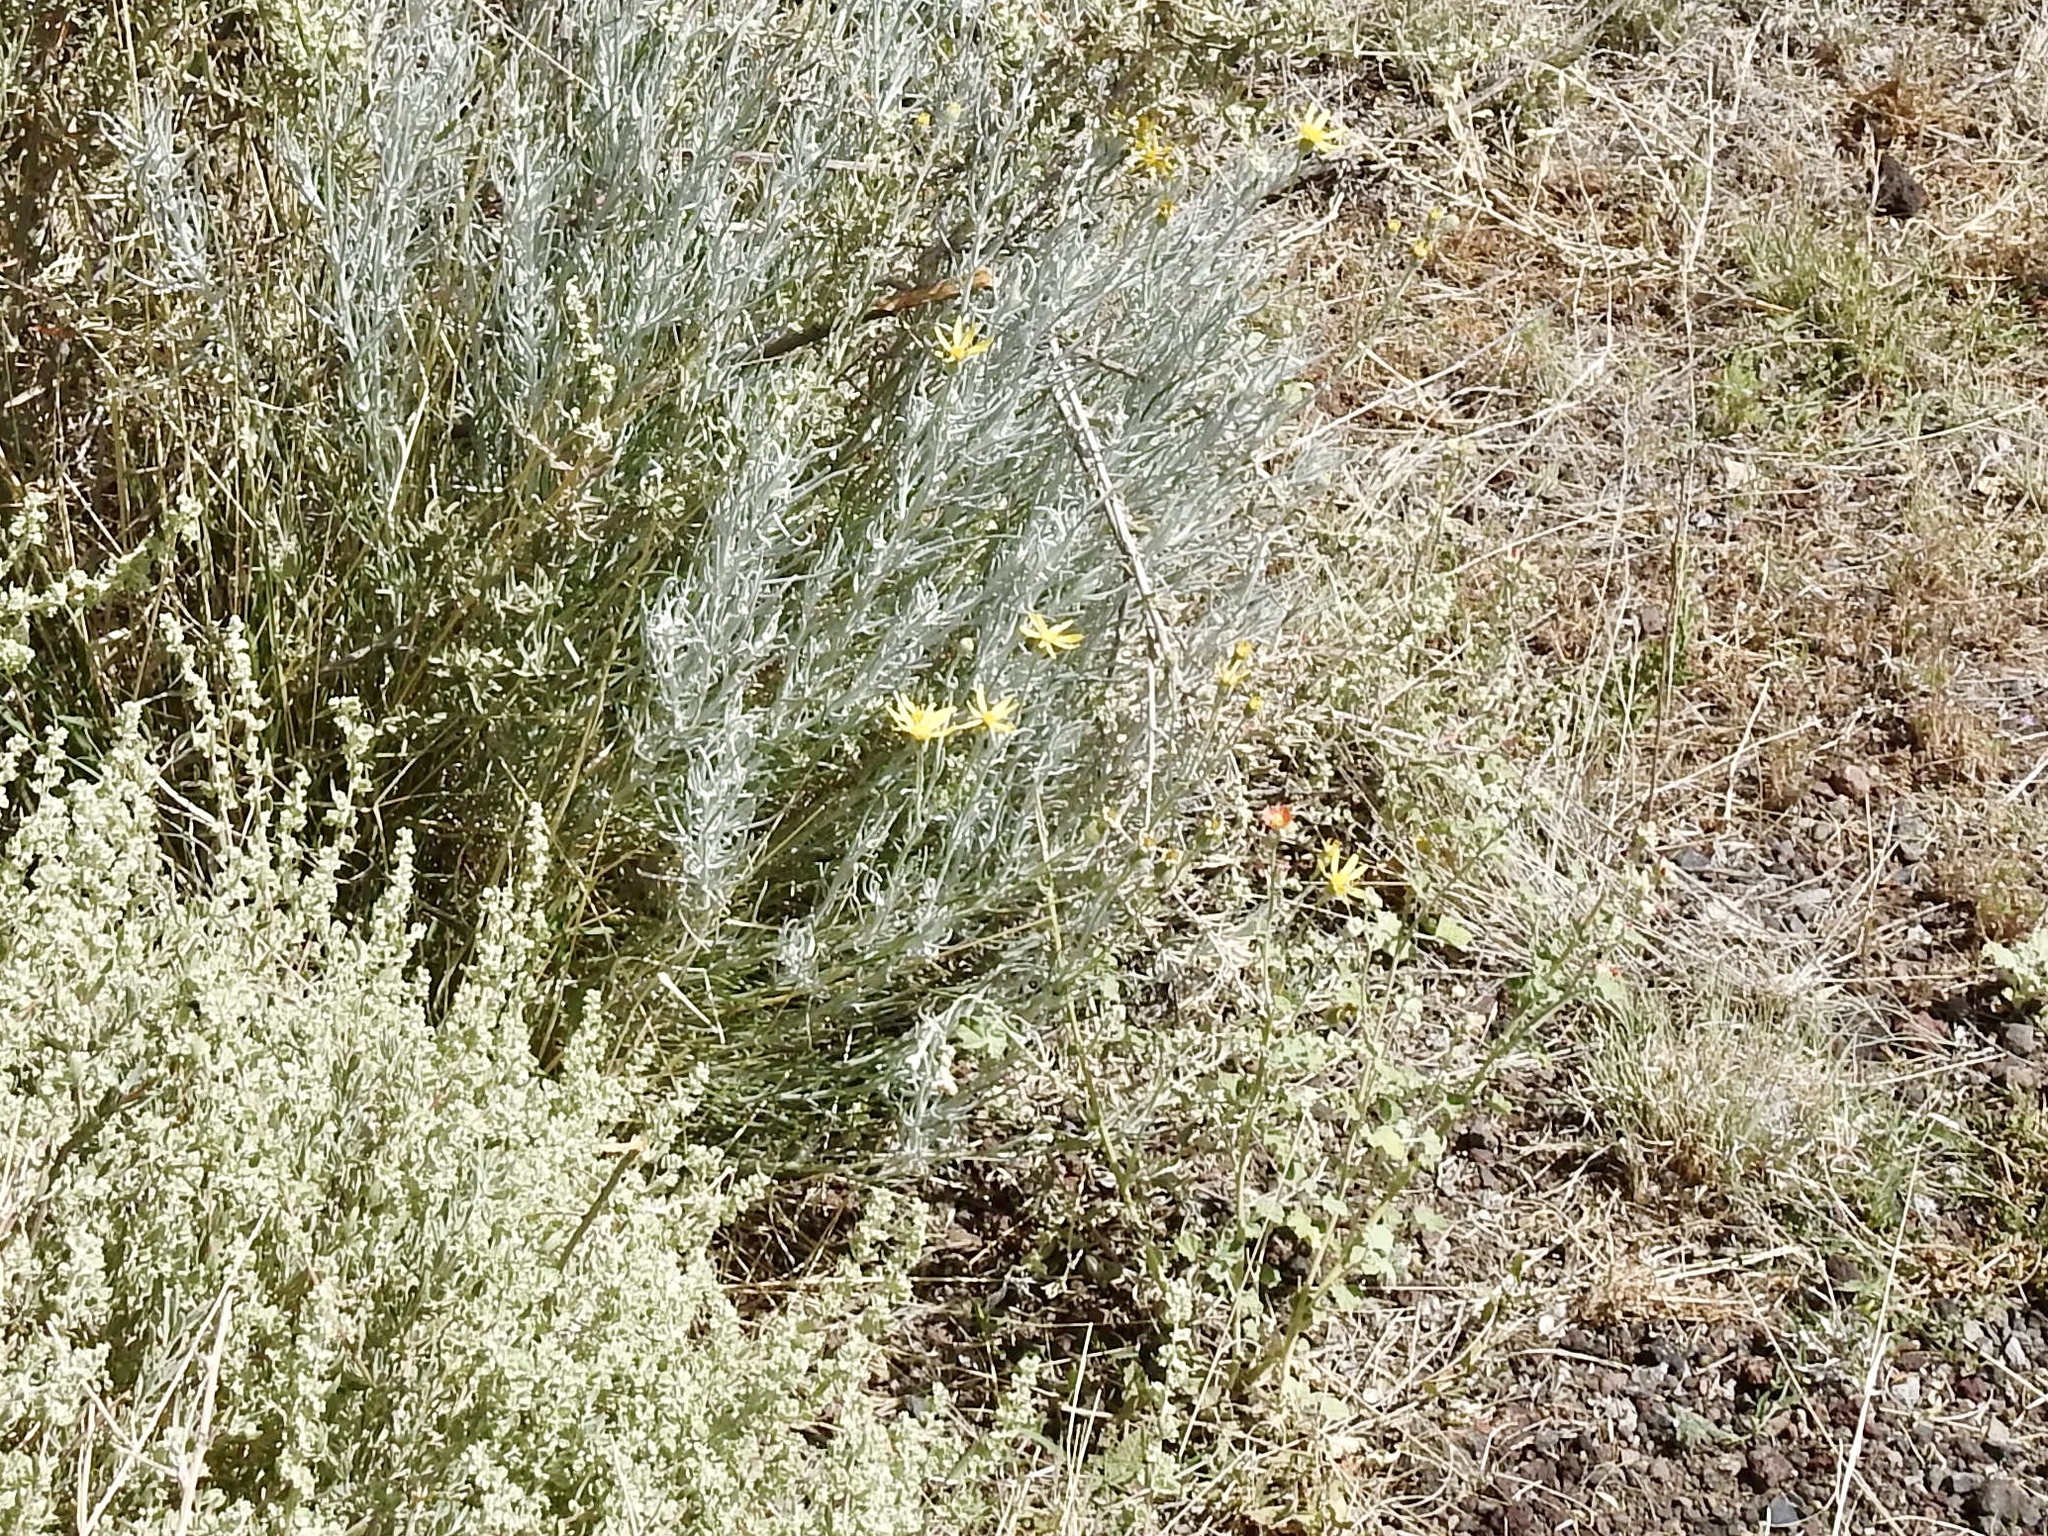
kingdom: Plantae
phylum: Tracheophyta
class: Magnoliopsida
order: Asterales
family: Asteraceae
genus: Senecio
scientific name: Senecio flaccidus
